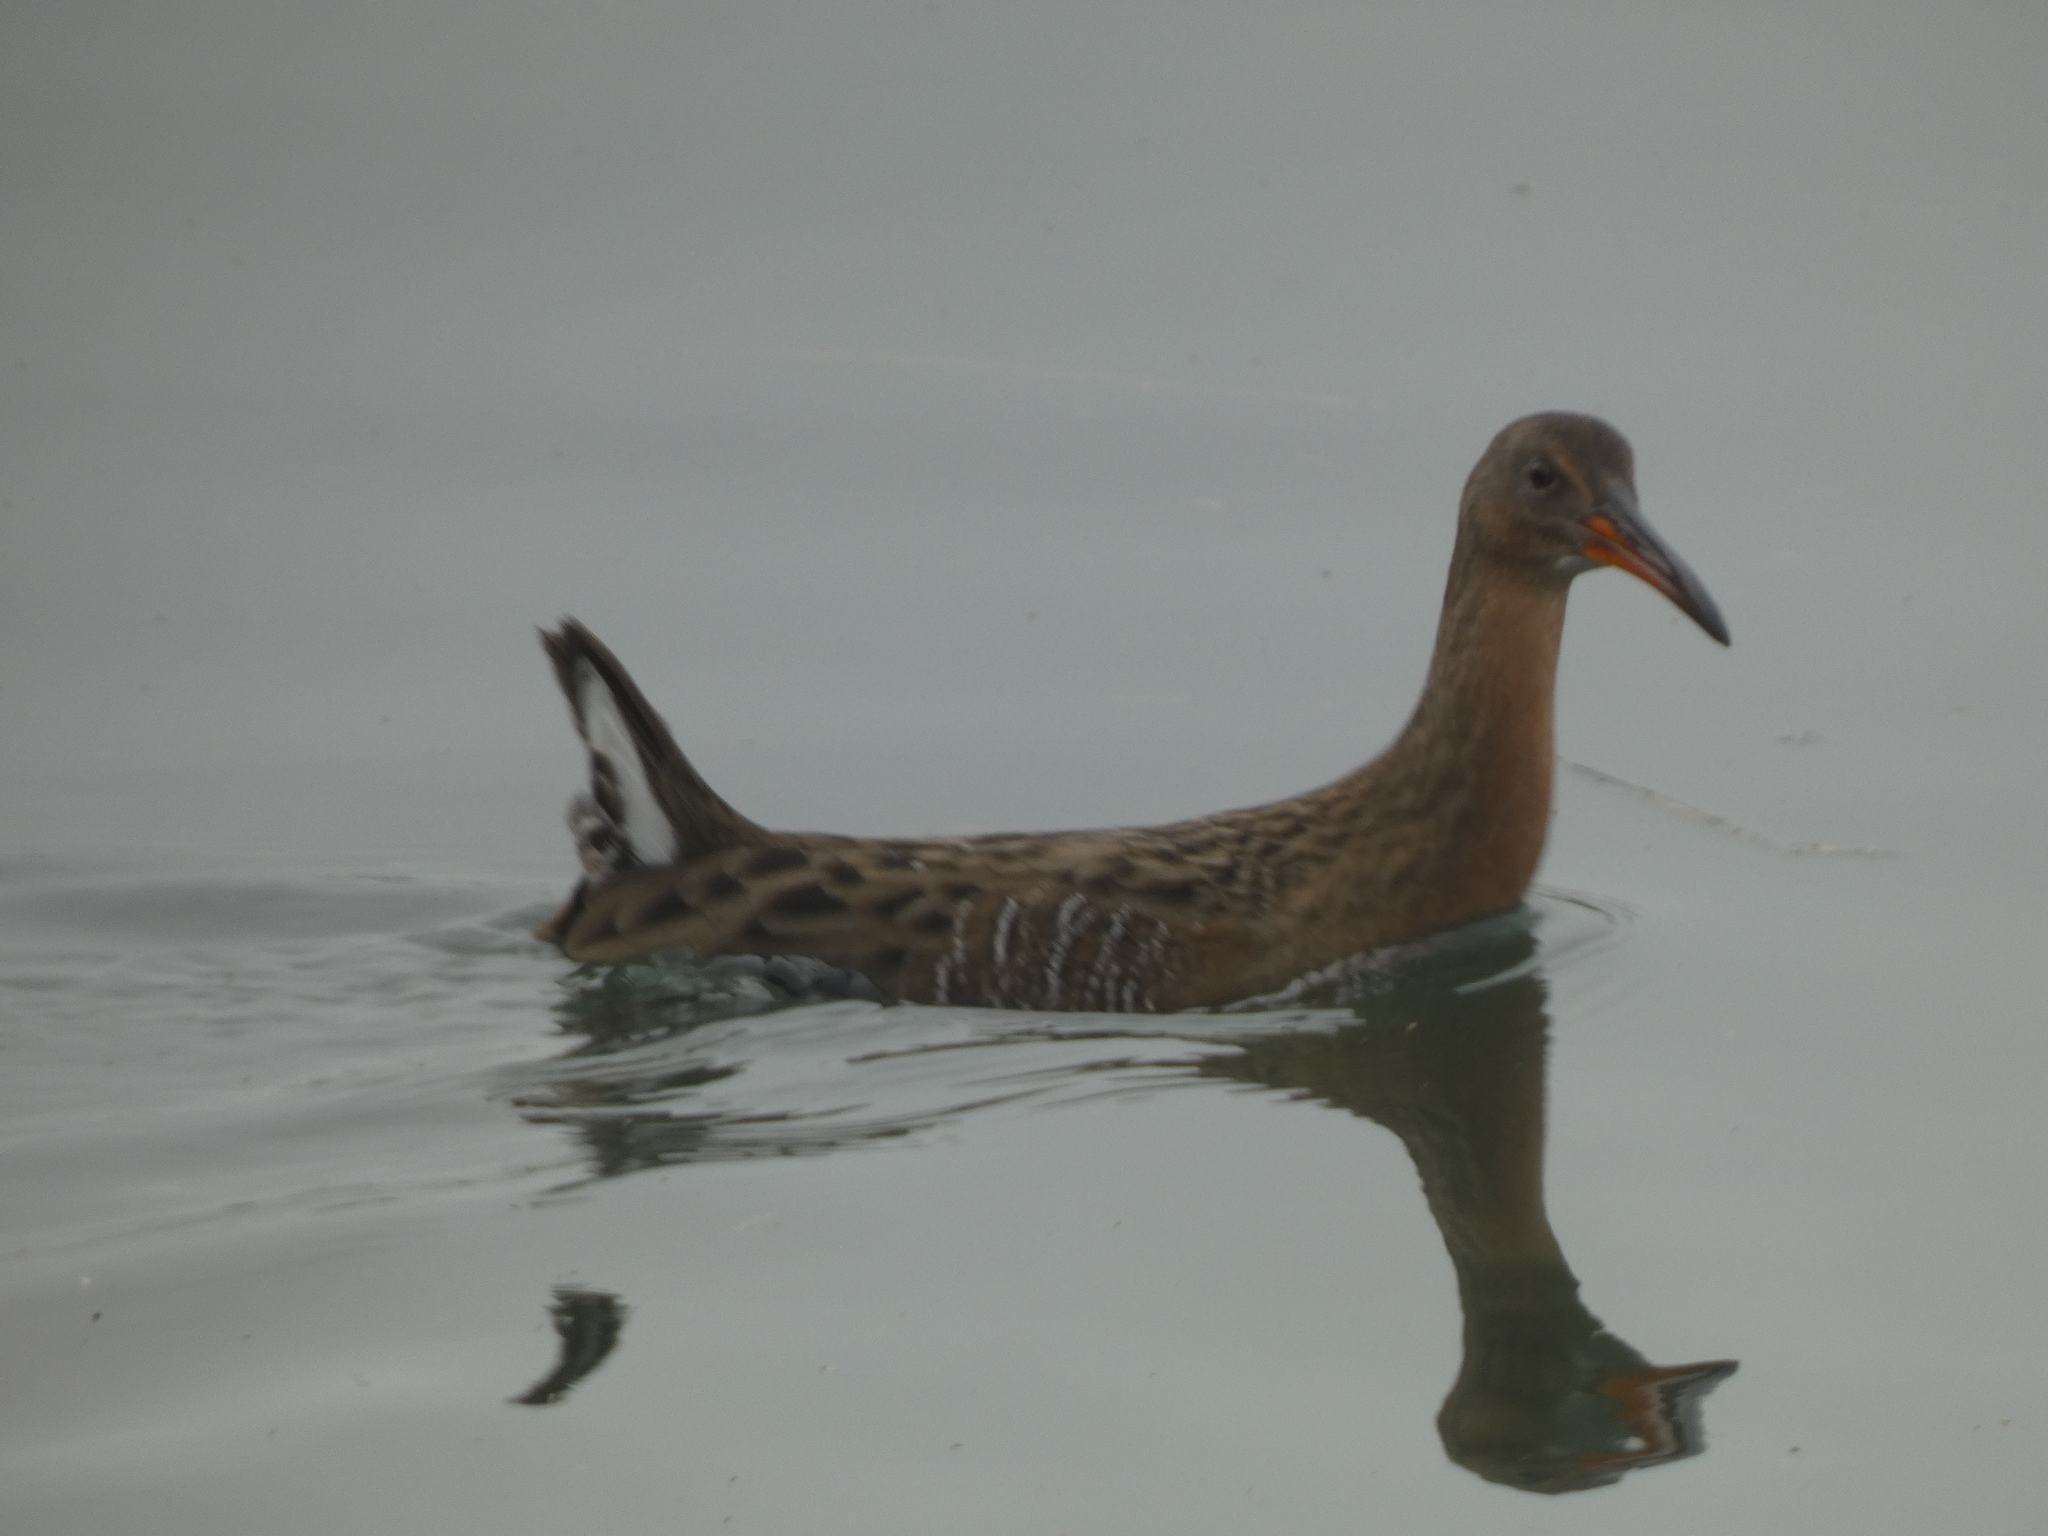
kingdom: Animalia
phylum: Chordata
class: Aves
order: Gruiformes
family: Rallidae
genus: Rallus
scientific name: Rallus obsoletus
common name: Ridgway's rail
